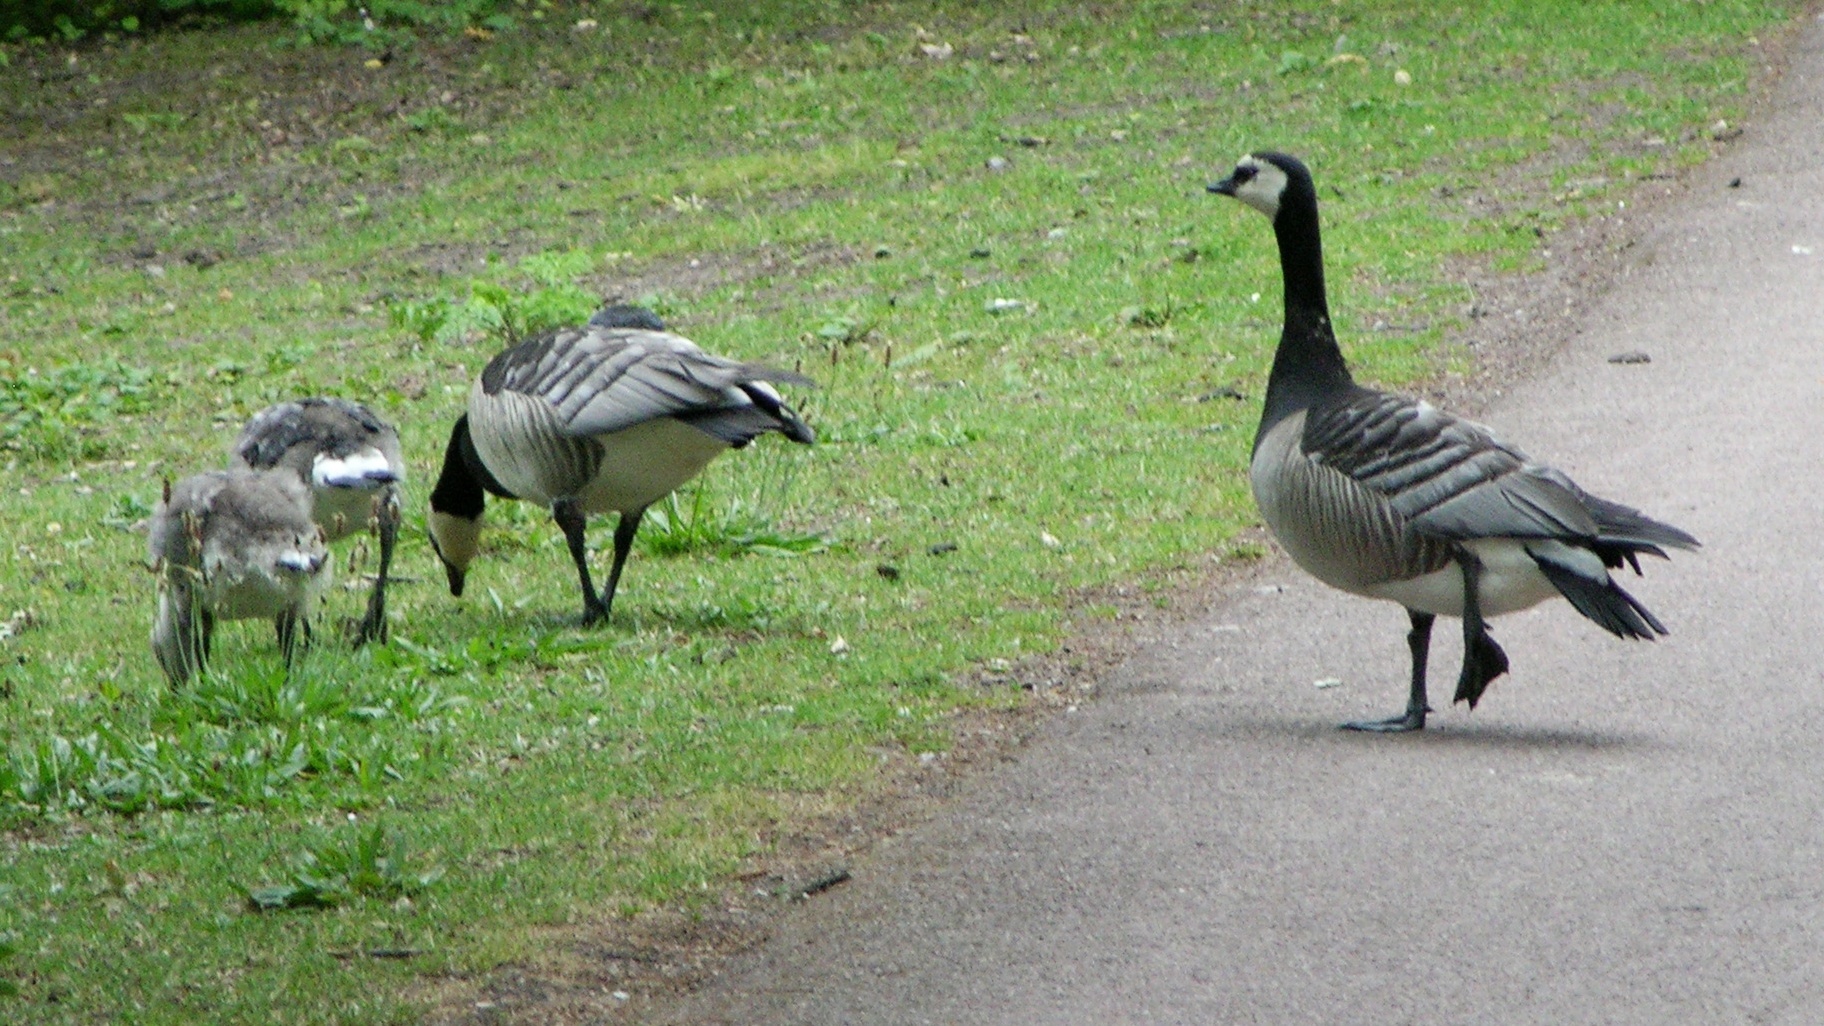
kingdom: Animalia
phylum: Chordata
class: Aves
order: Anseriformes
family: Anatidae
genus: Branta
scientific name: Branta leucopsis
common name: Barnacle goose
